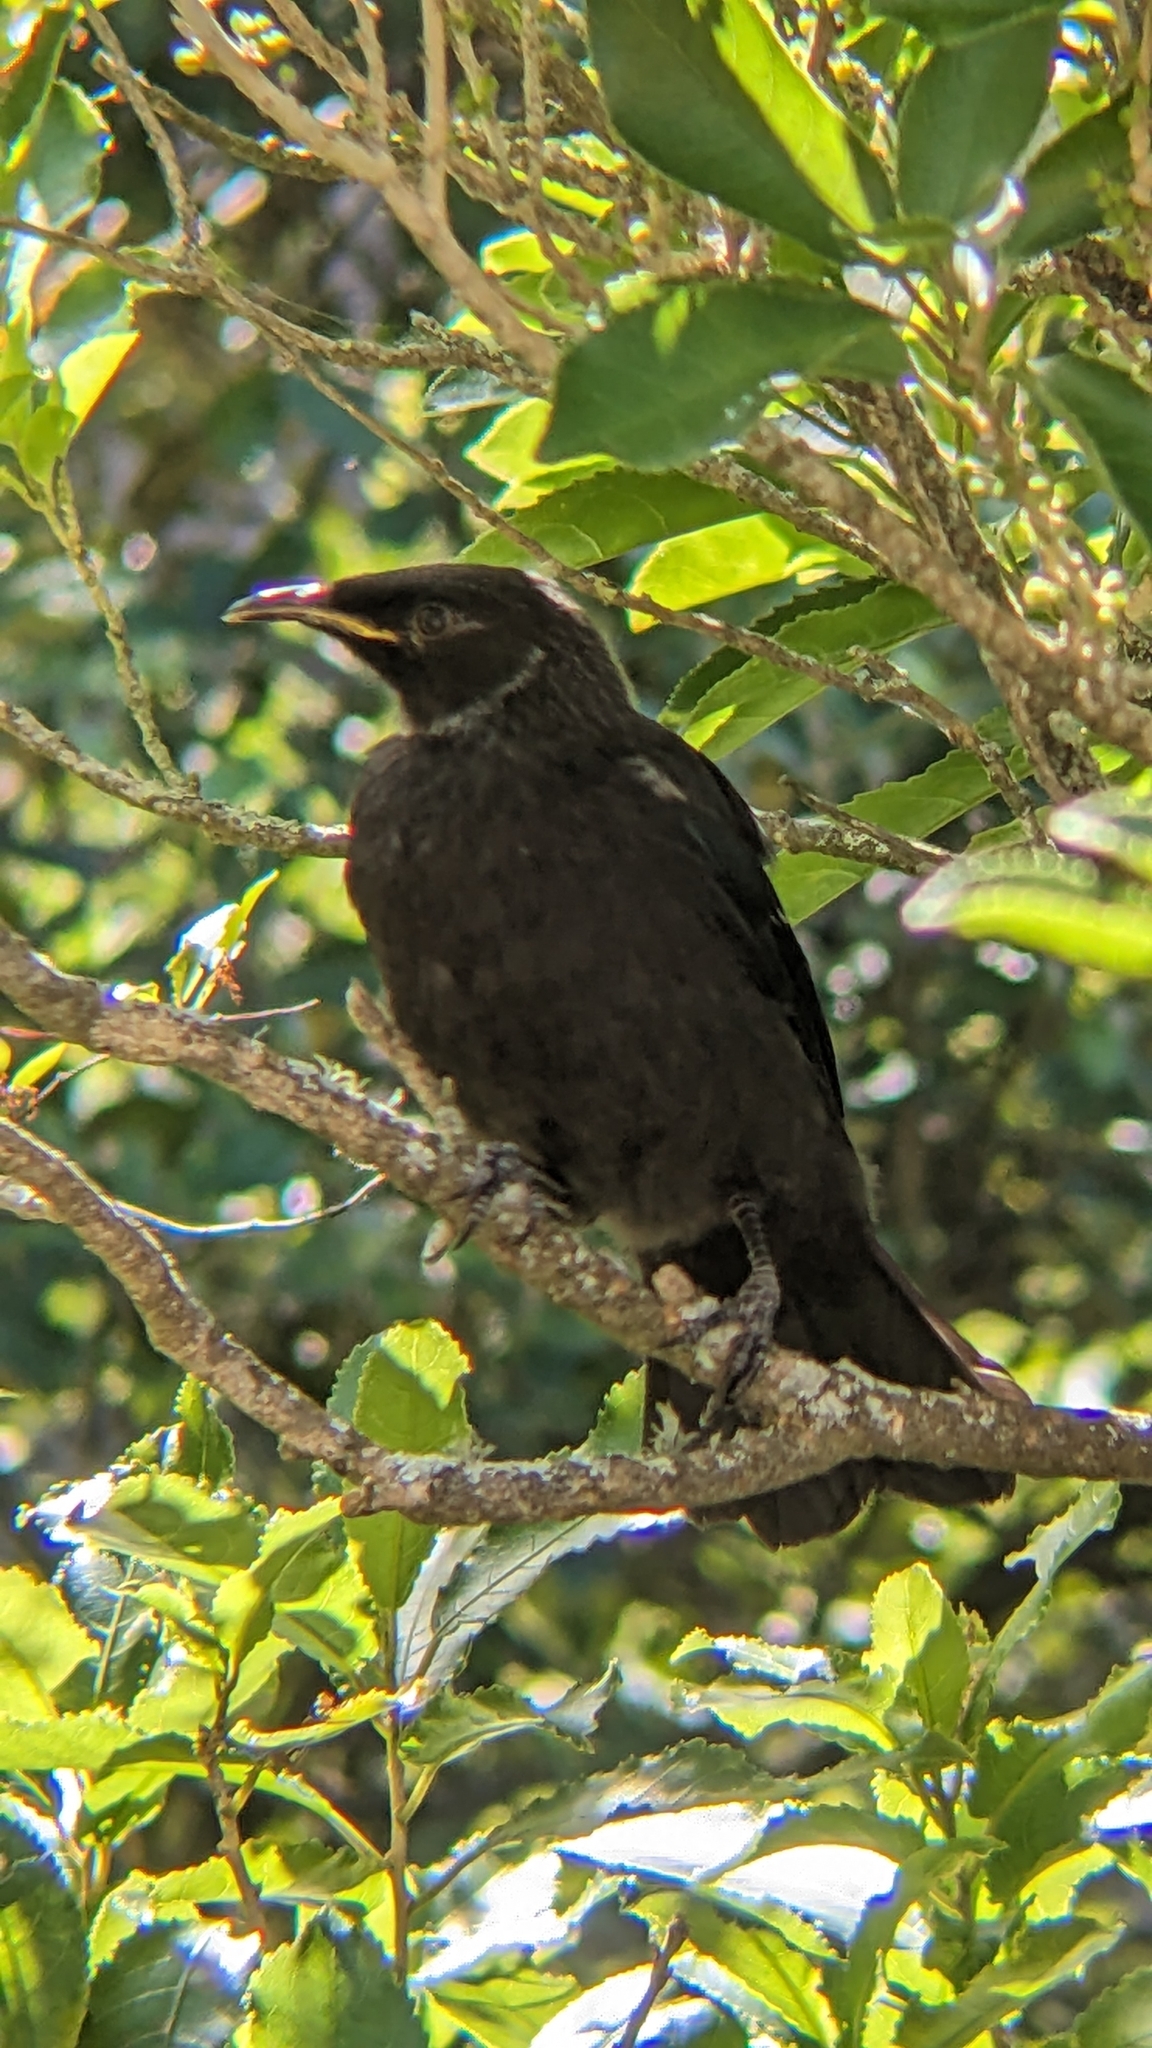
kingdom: Animalia
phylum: Chordata
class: Aves
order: Passeriformes
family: Meliphagidae
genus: Prosthemadera
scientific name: Prosthemadera novaeseelandiae
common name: Tui
